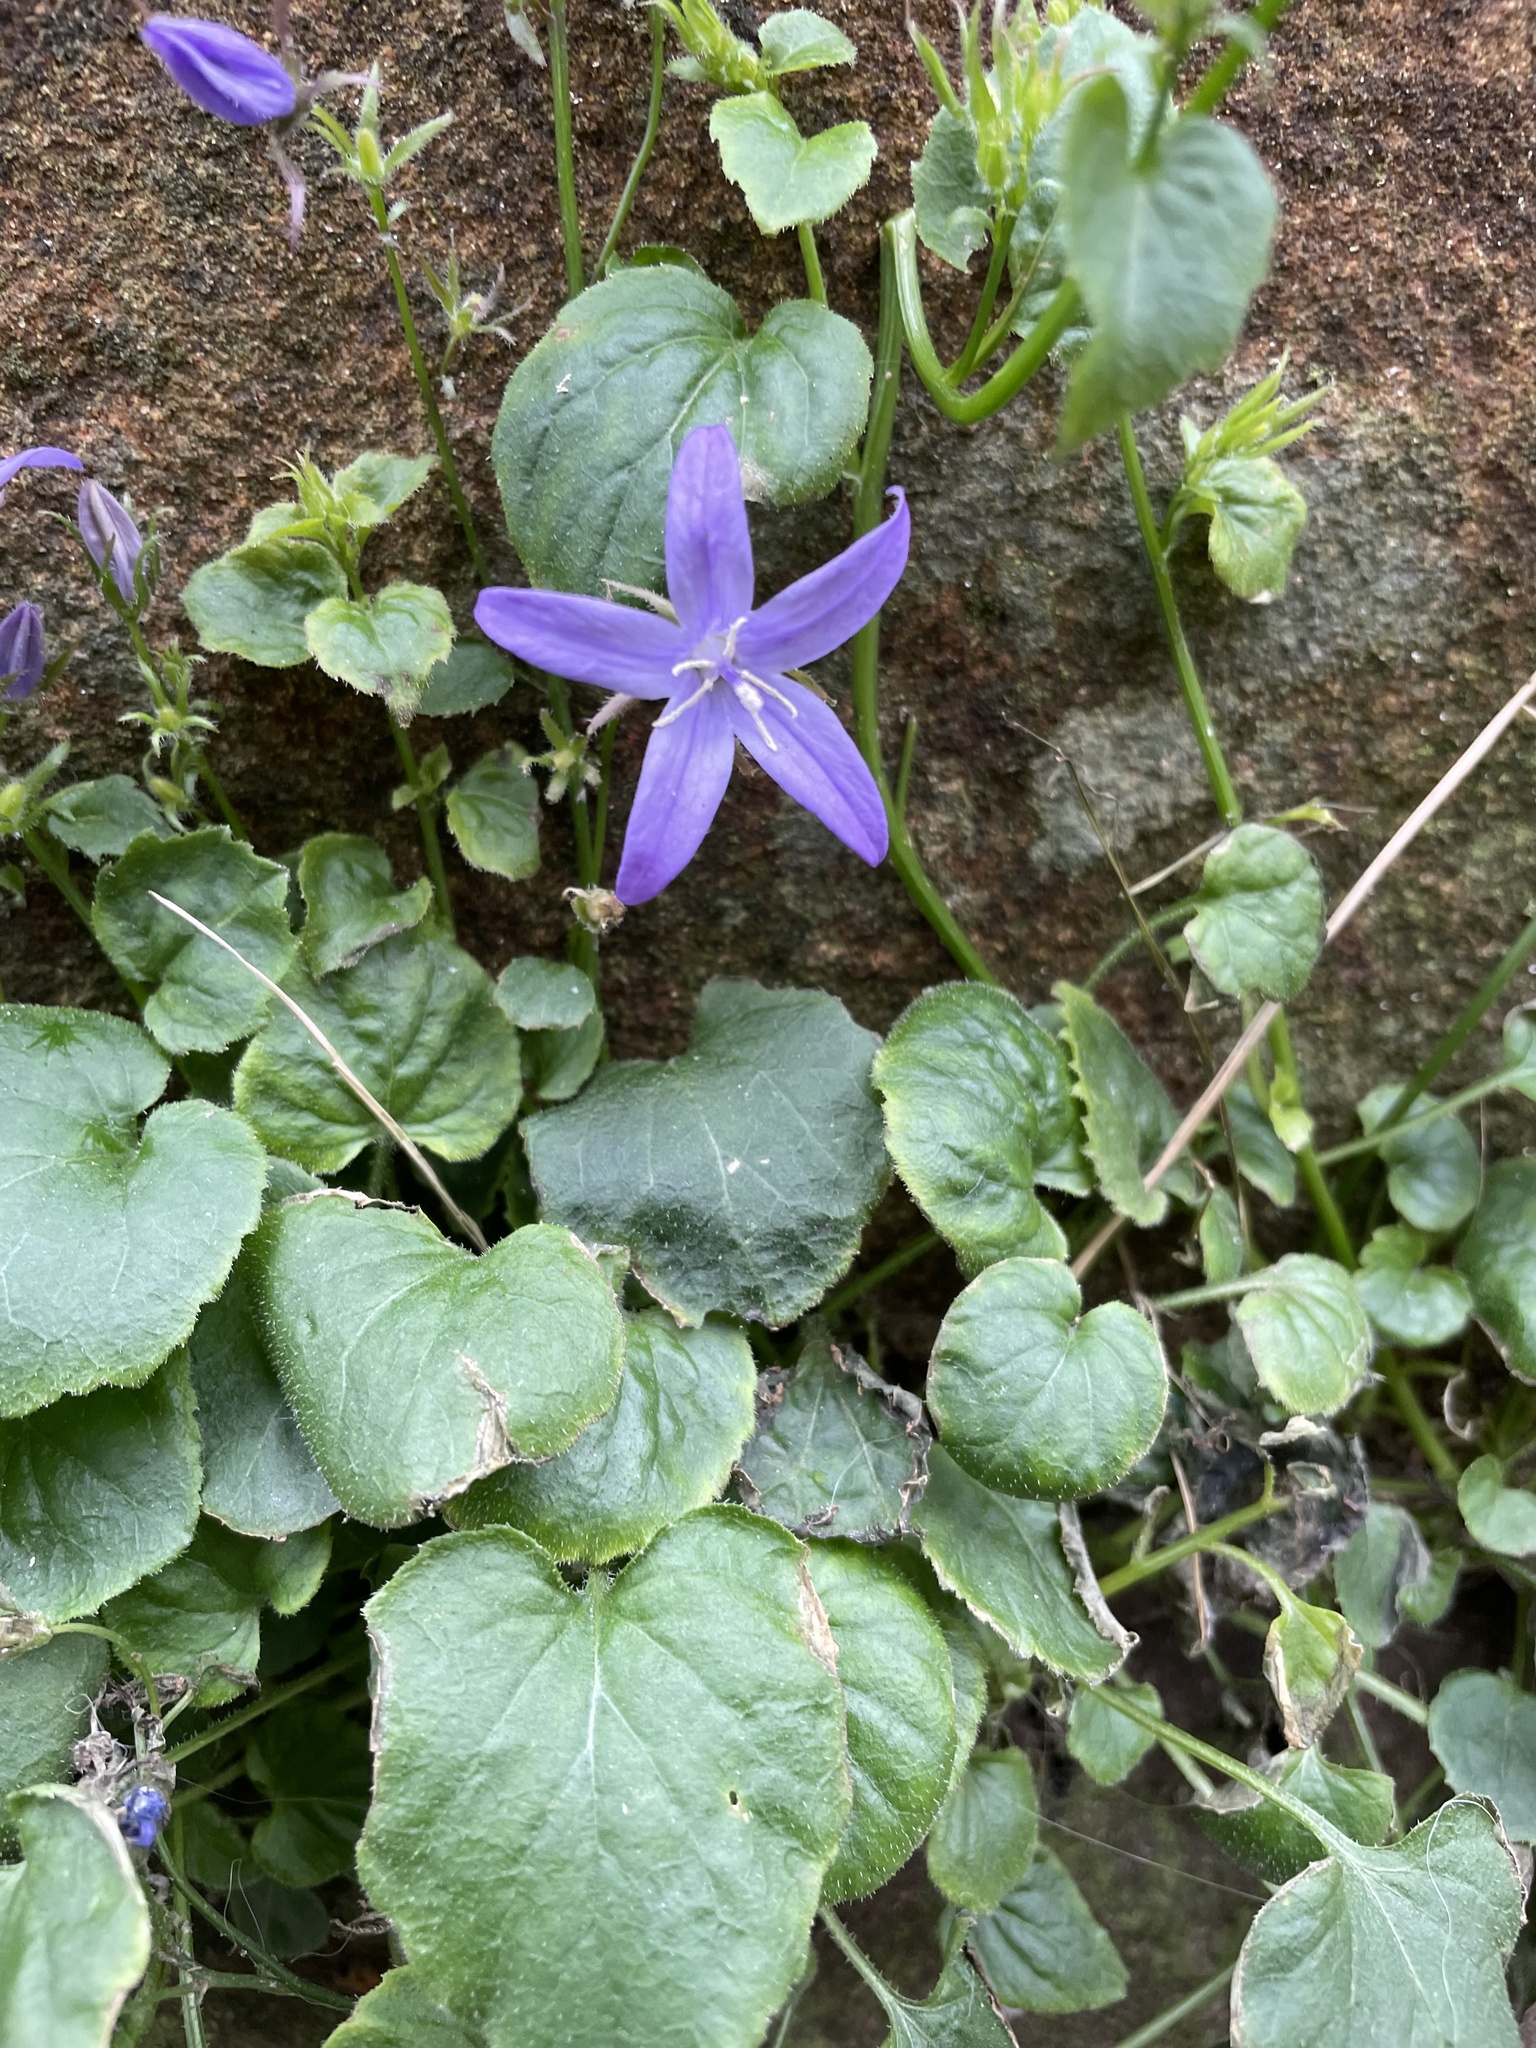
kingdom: Plantae
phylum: Tracheophyta
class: Magnoliopsida
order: Asterales
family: Campanulaceae
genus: Campanula
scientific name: Campanula poscharskyana
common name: Trailing bellflower
